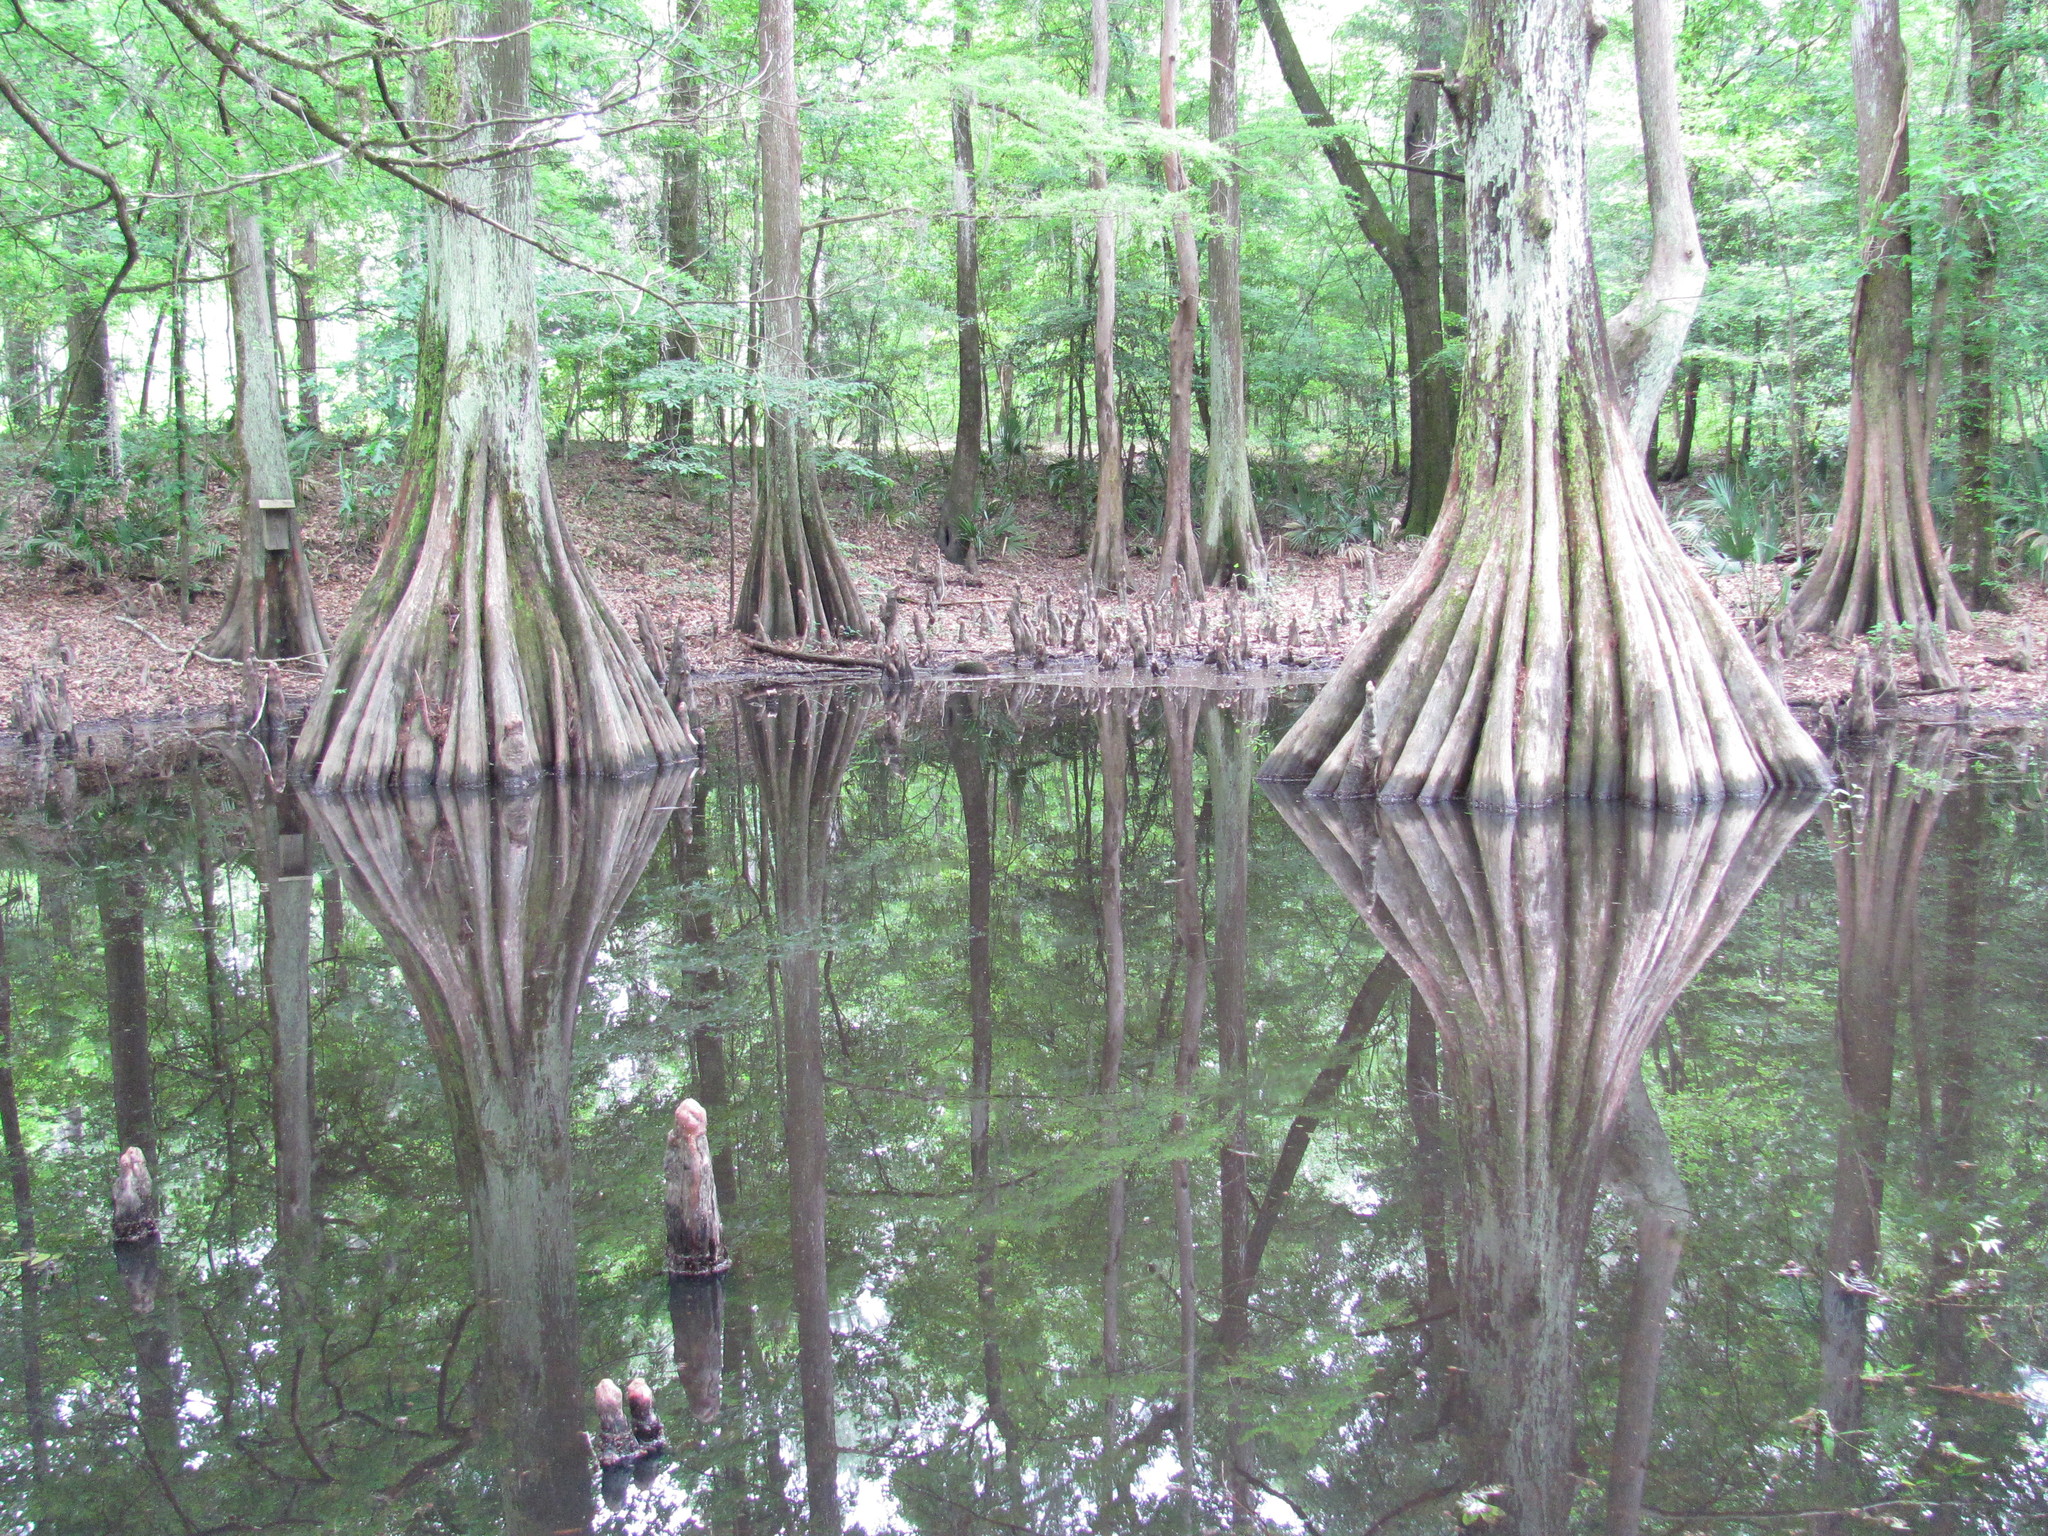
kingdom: Plantae
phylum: Tracheophyta
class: Pinopsida
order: Pinales
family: Cupressaceae
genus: Taxodium
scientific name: Taxodium distichum
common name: Bald cypress
